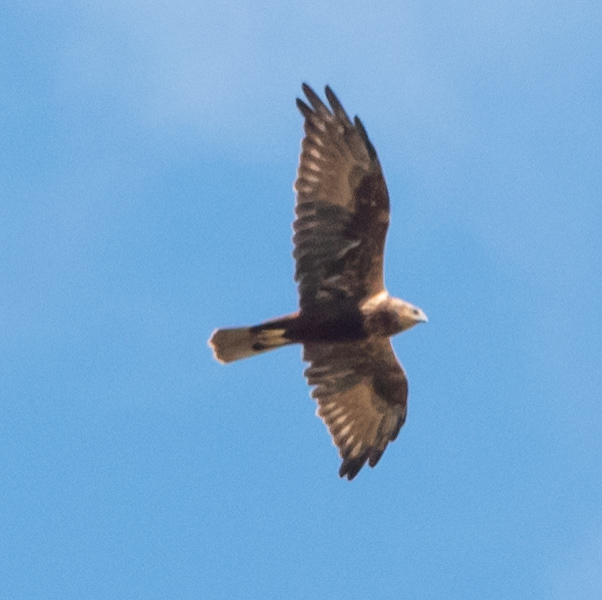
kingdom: Animalia
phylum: Chordata
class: Aves
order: Accipitriformes
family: Accipitridae
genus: Circus
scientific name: Circus aeruginosus
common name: Western marsh harrier
